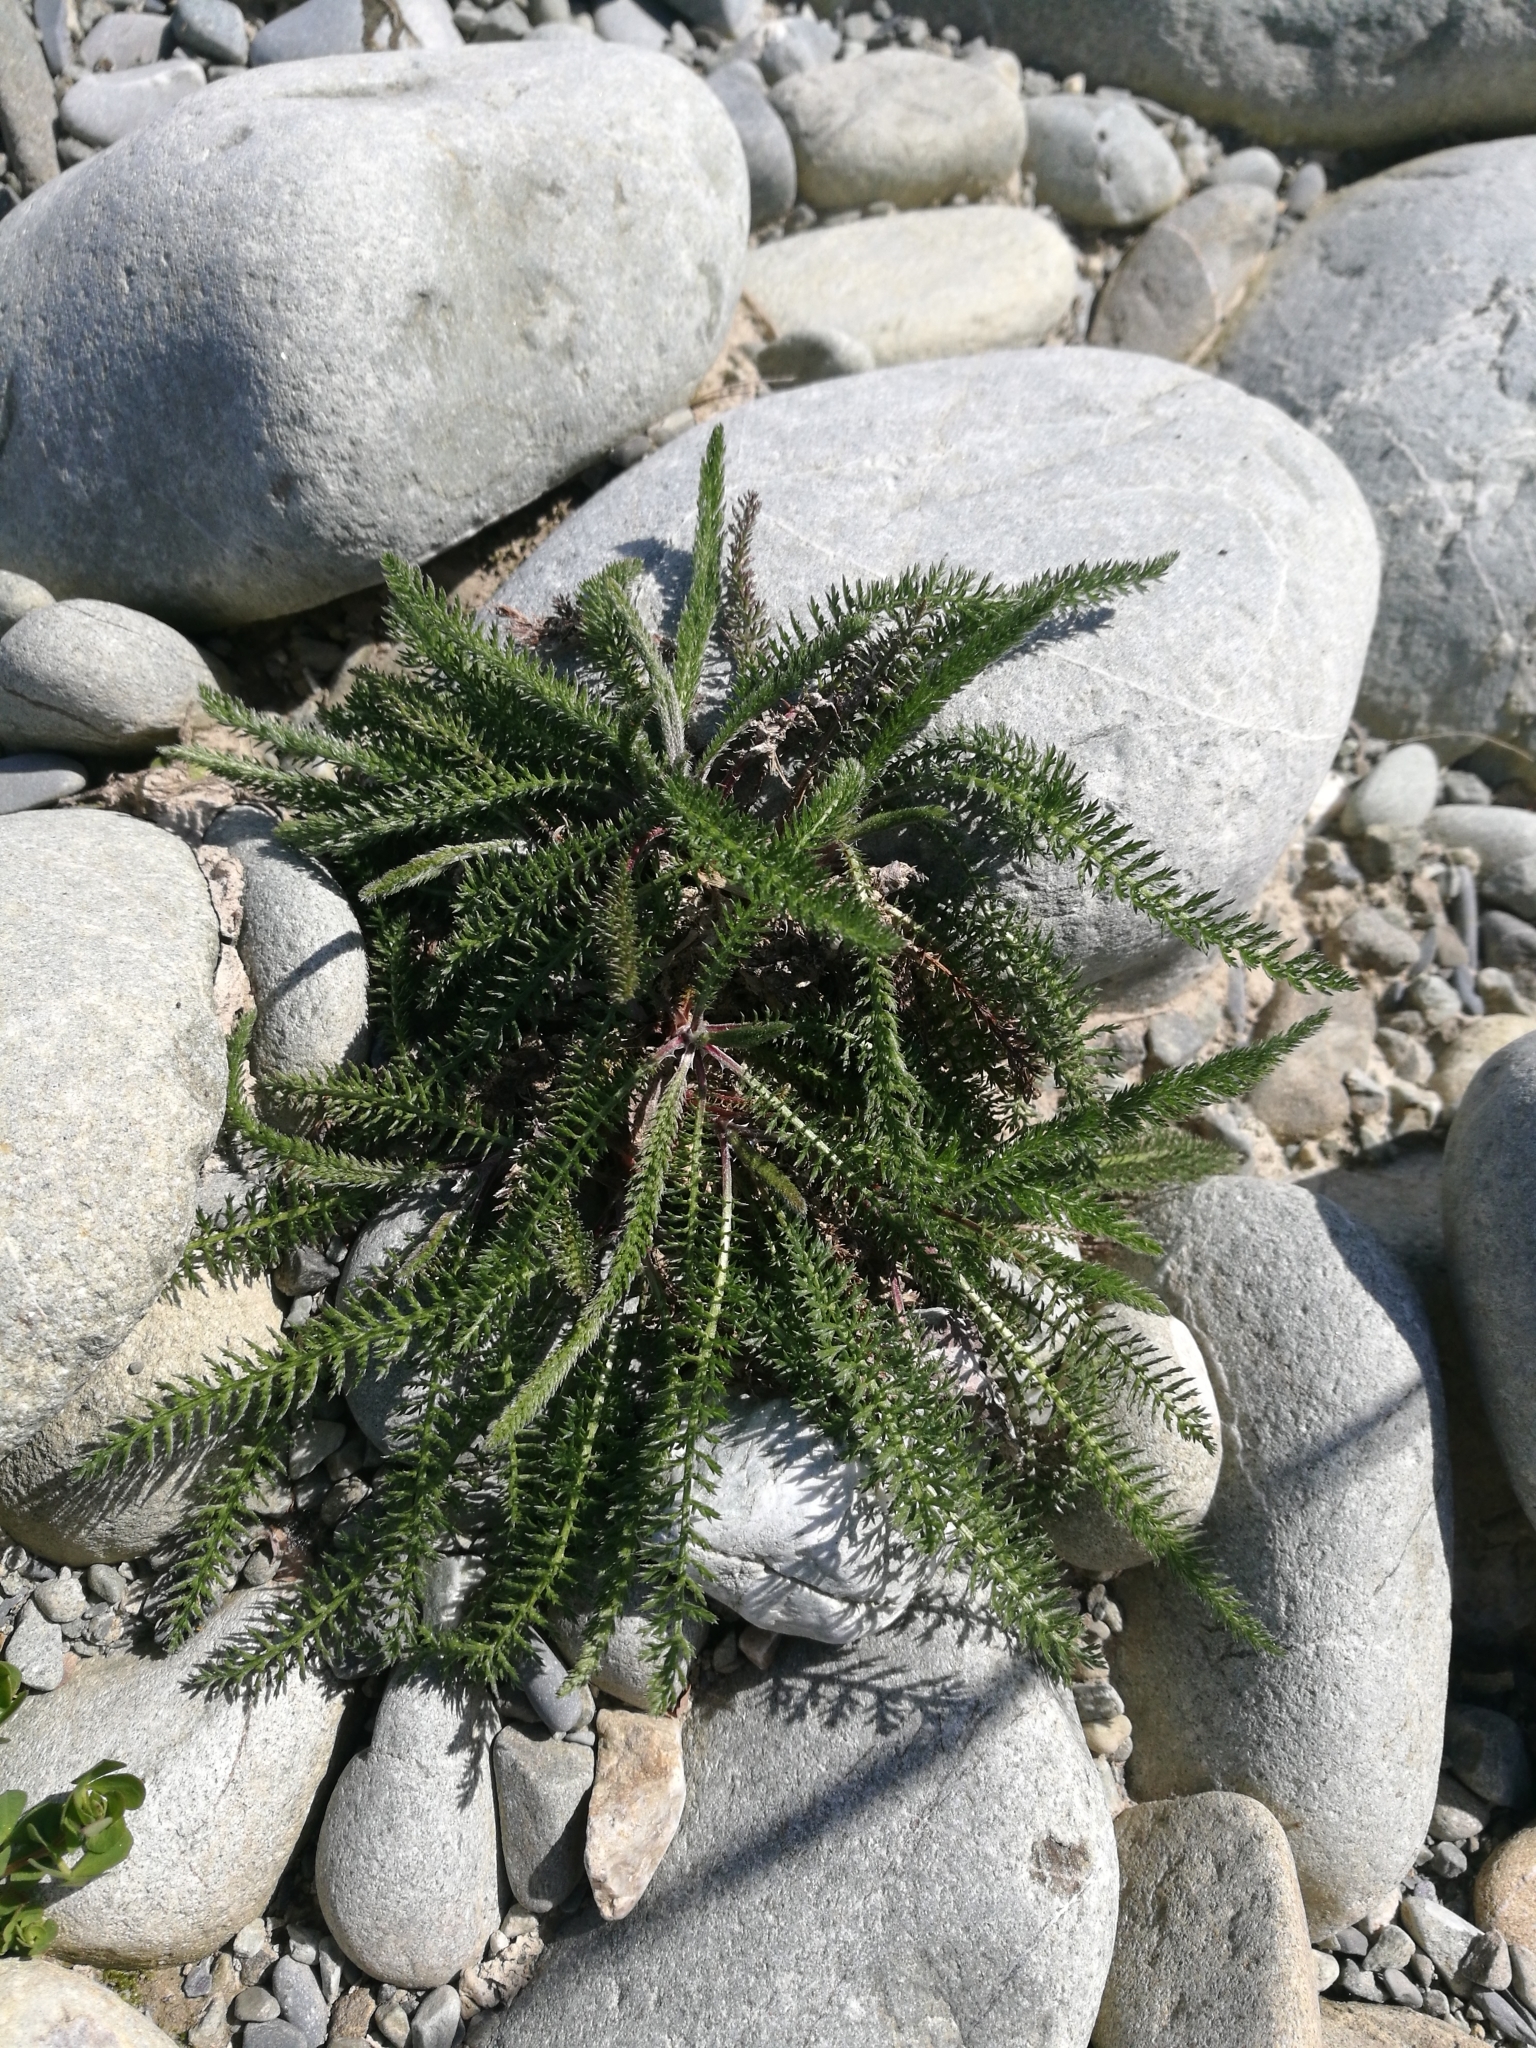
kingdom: Plantae
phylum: Tracheophyta
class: Magnoliopsida
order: Asterales
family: Asteraceae
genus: Achillea
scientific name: Achillea millefolium
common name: Yarrow
